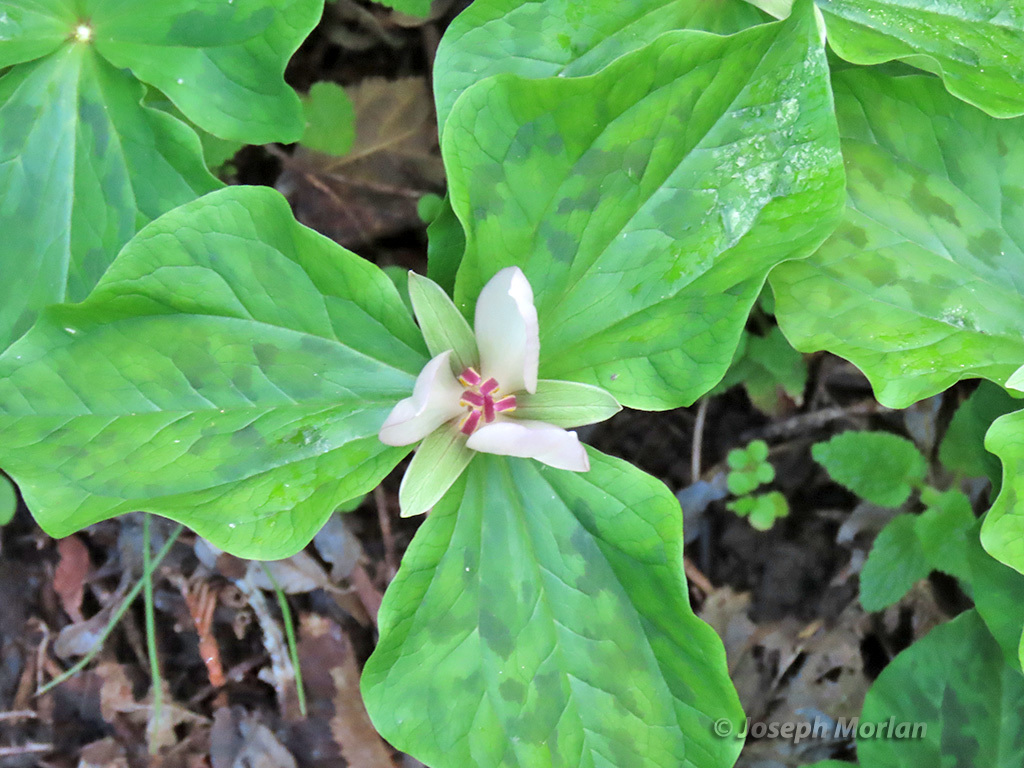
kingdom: Plantae
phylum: Tracheophyta
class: Liliopsida
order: Liliales
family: Melanthiaceae
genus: Trillium
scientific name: Trillium chloropetalum
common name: Giant trillium
